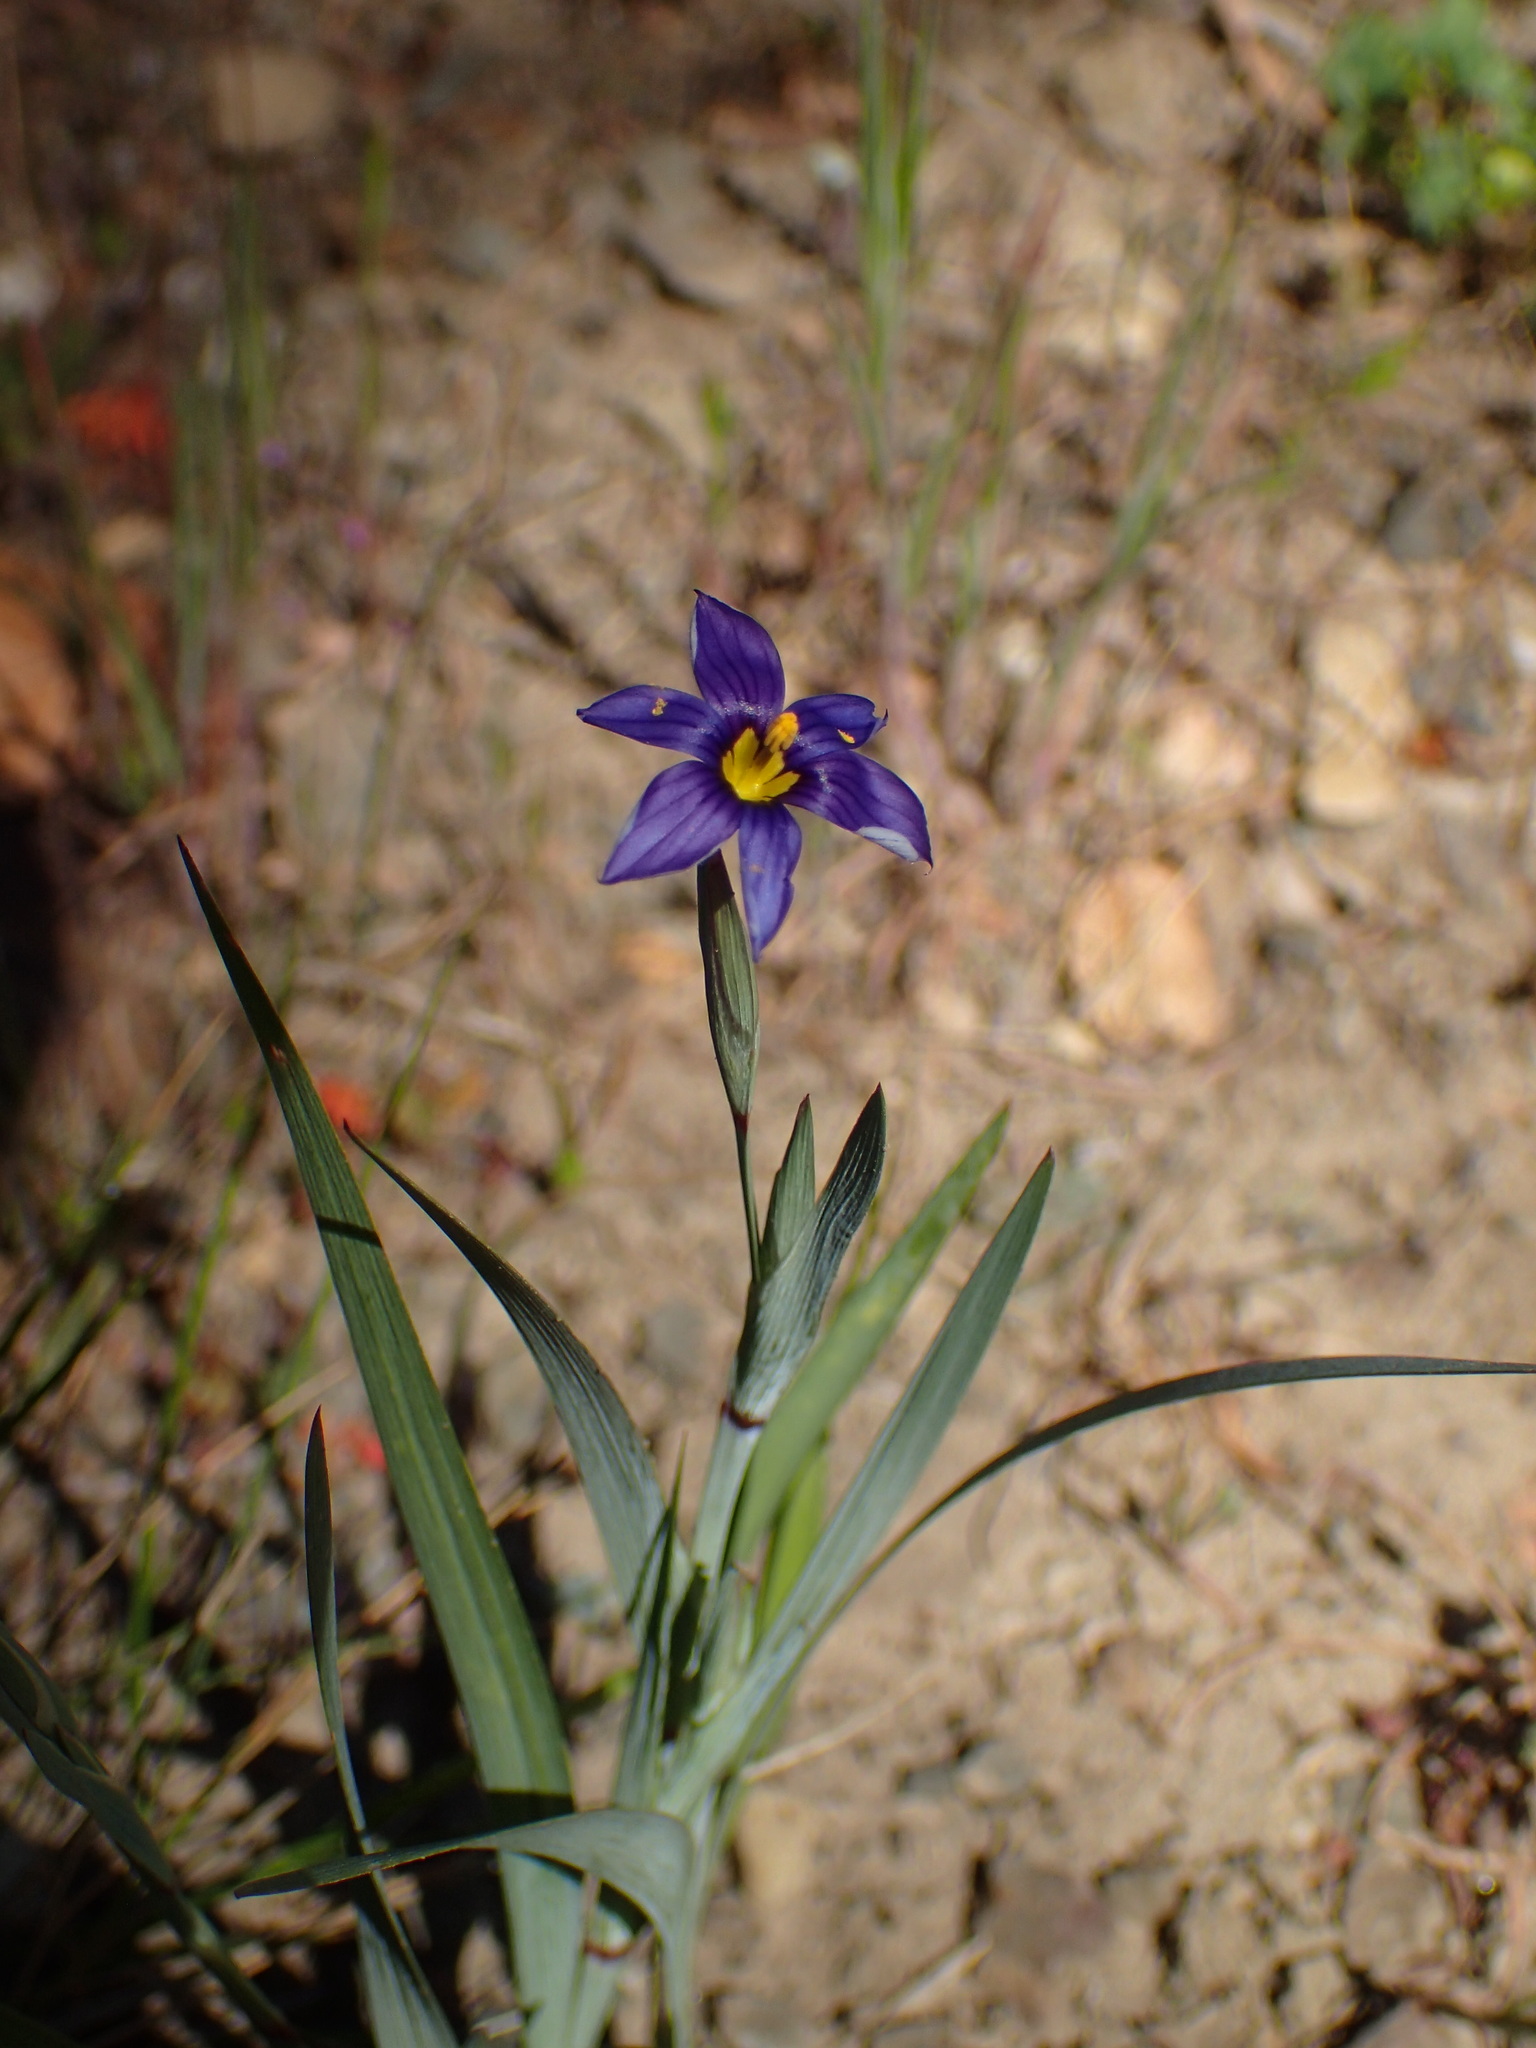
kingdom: Plantae
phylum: Tracheophyta
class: Liliopsida
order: Asparagales
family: Iridaceae
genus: Sisyrinchium
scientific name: Sisyrinchium bellum
